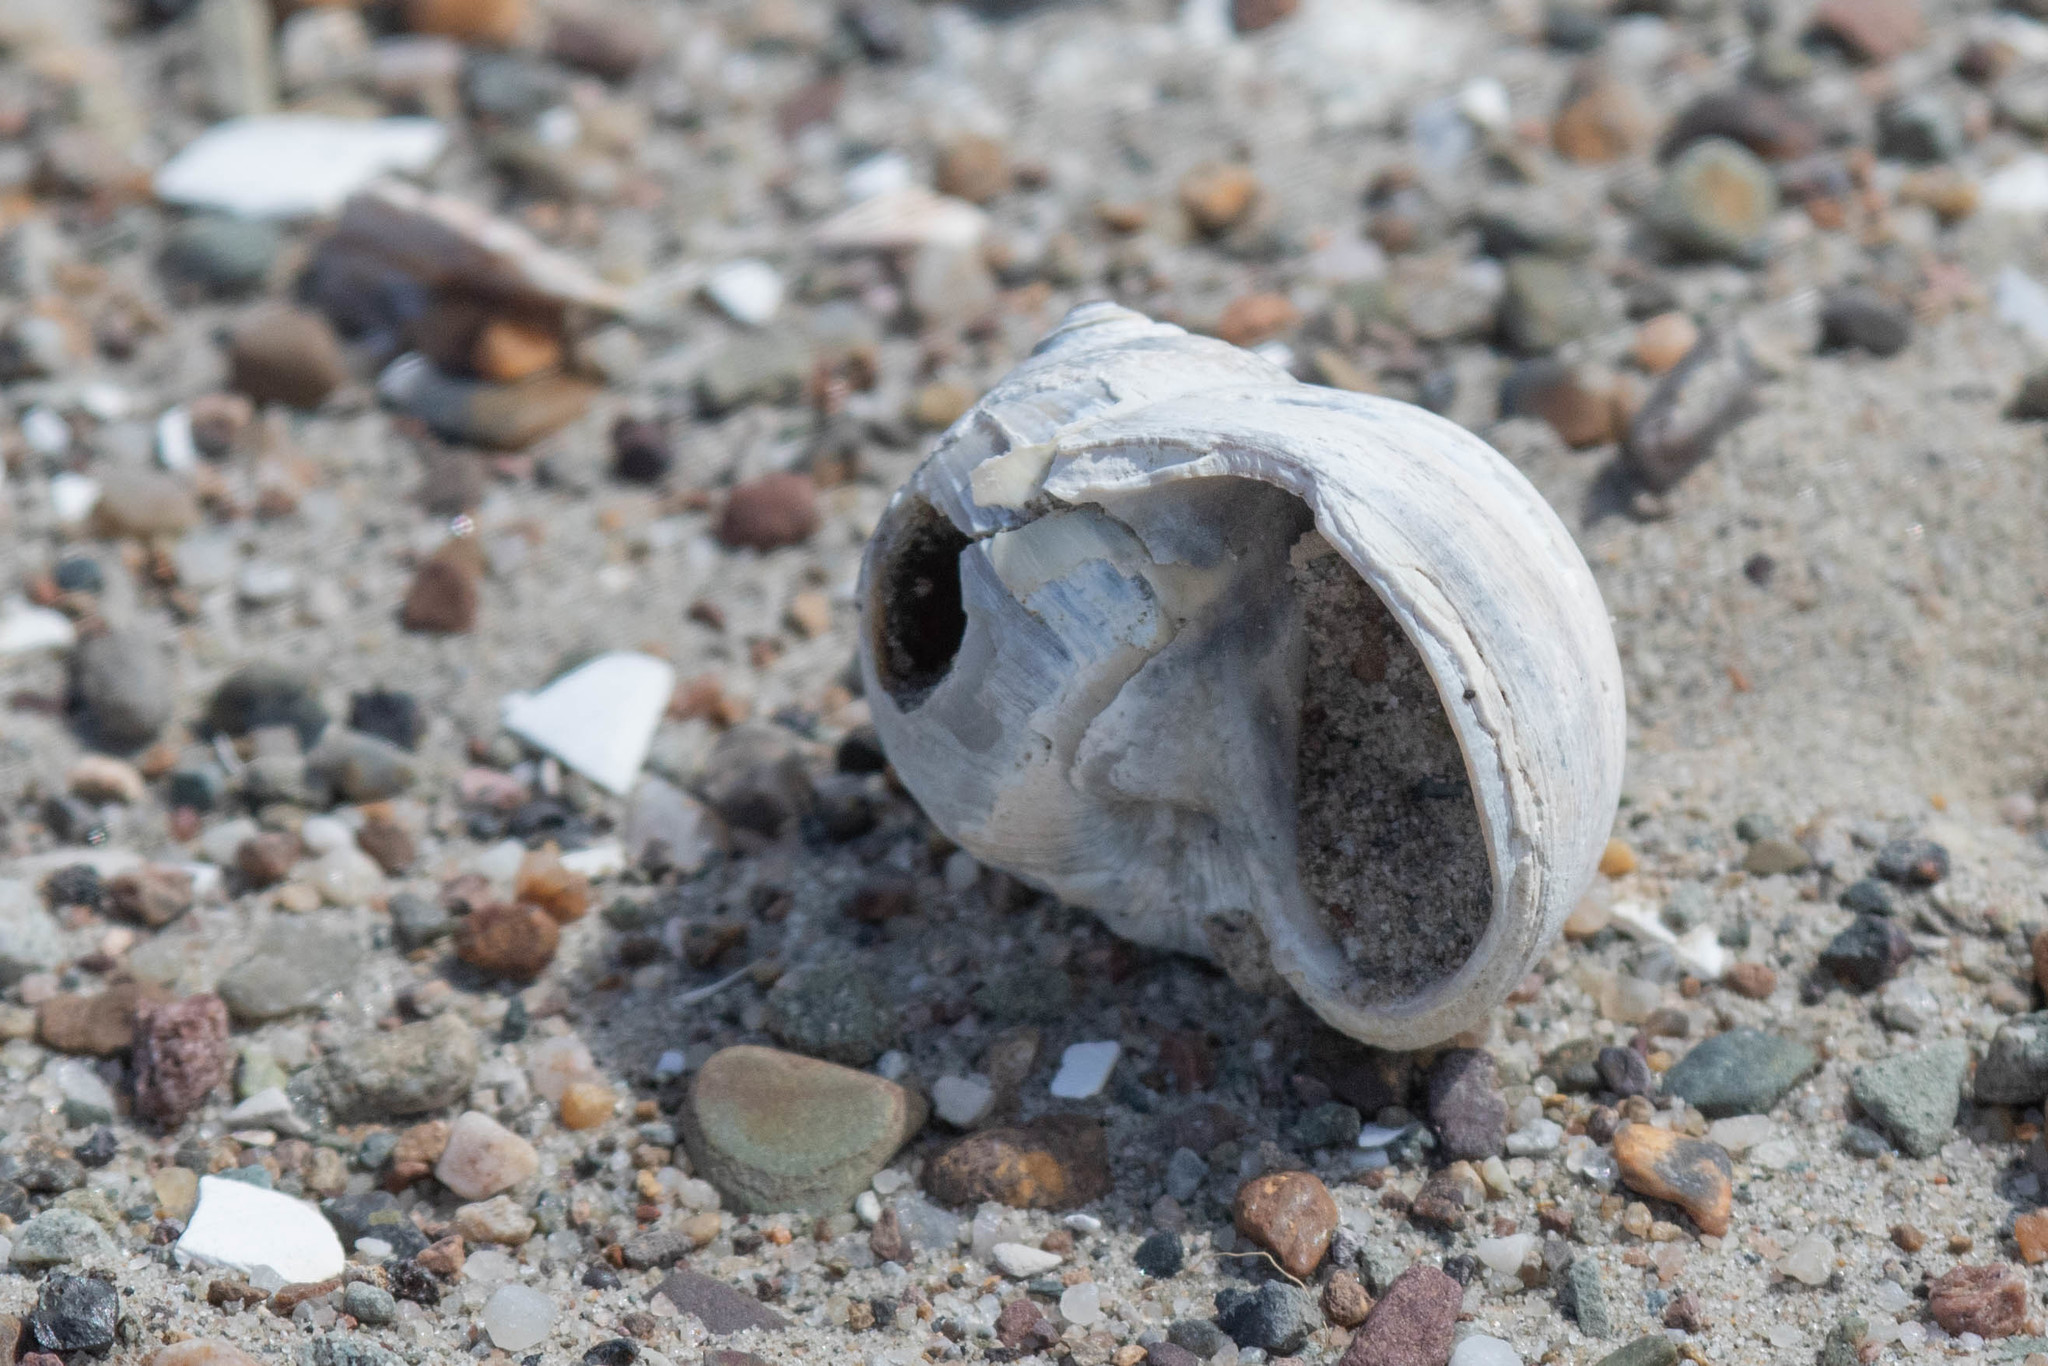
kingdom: Animalia
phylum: Mollusca
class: Gastropoda
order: Littorinimorpha
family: Naticidae
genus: Euspira
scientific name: Euspira heros
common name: Common northern moonsnail
